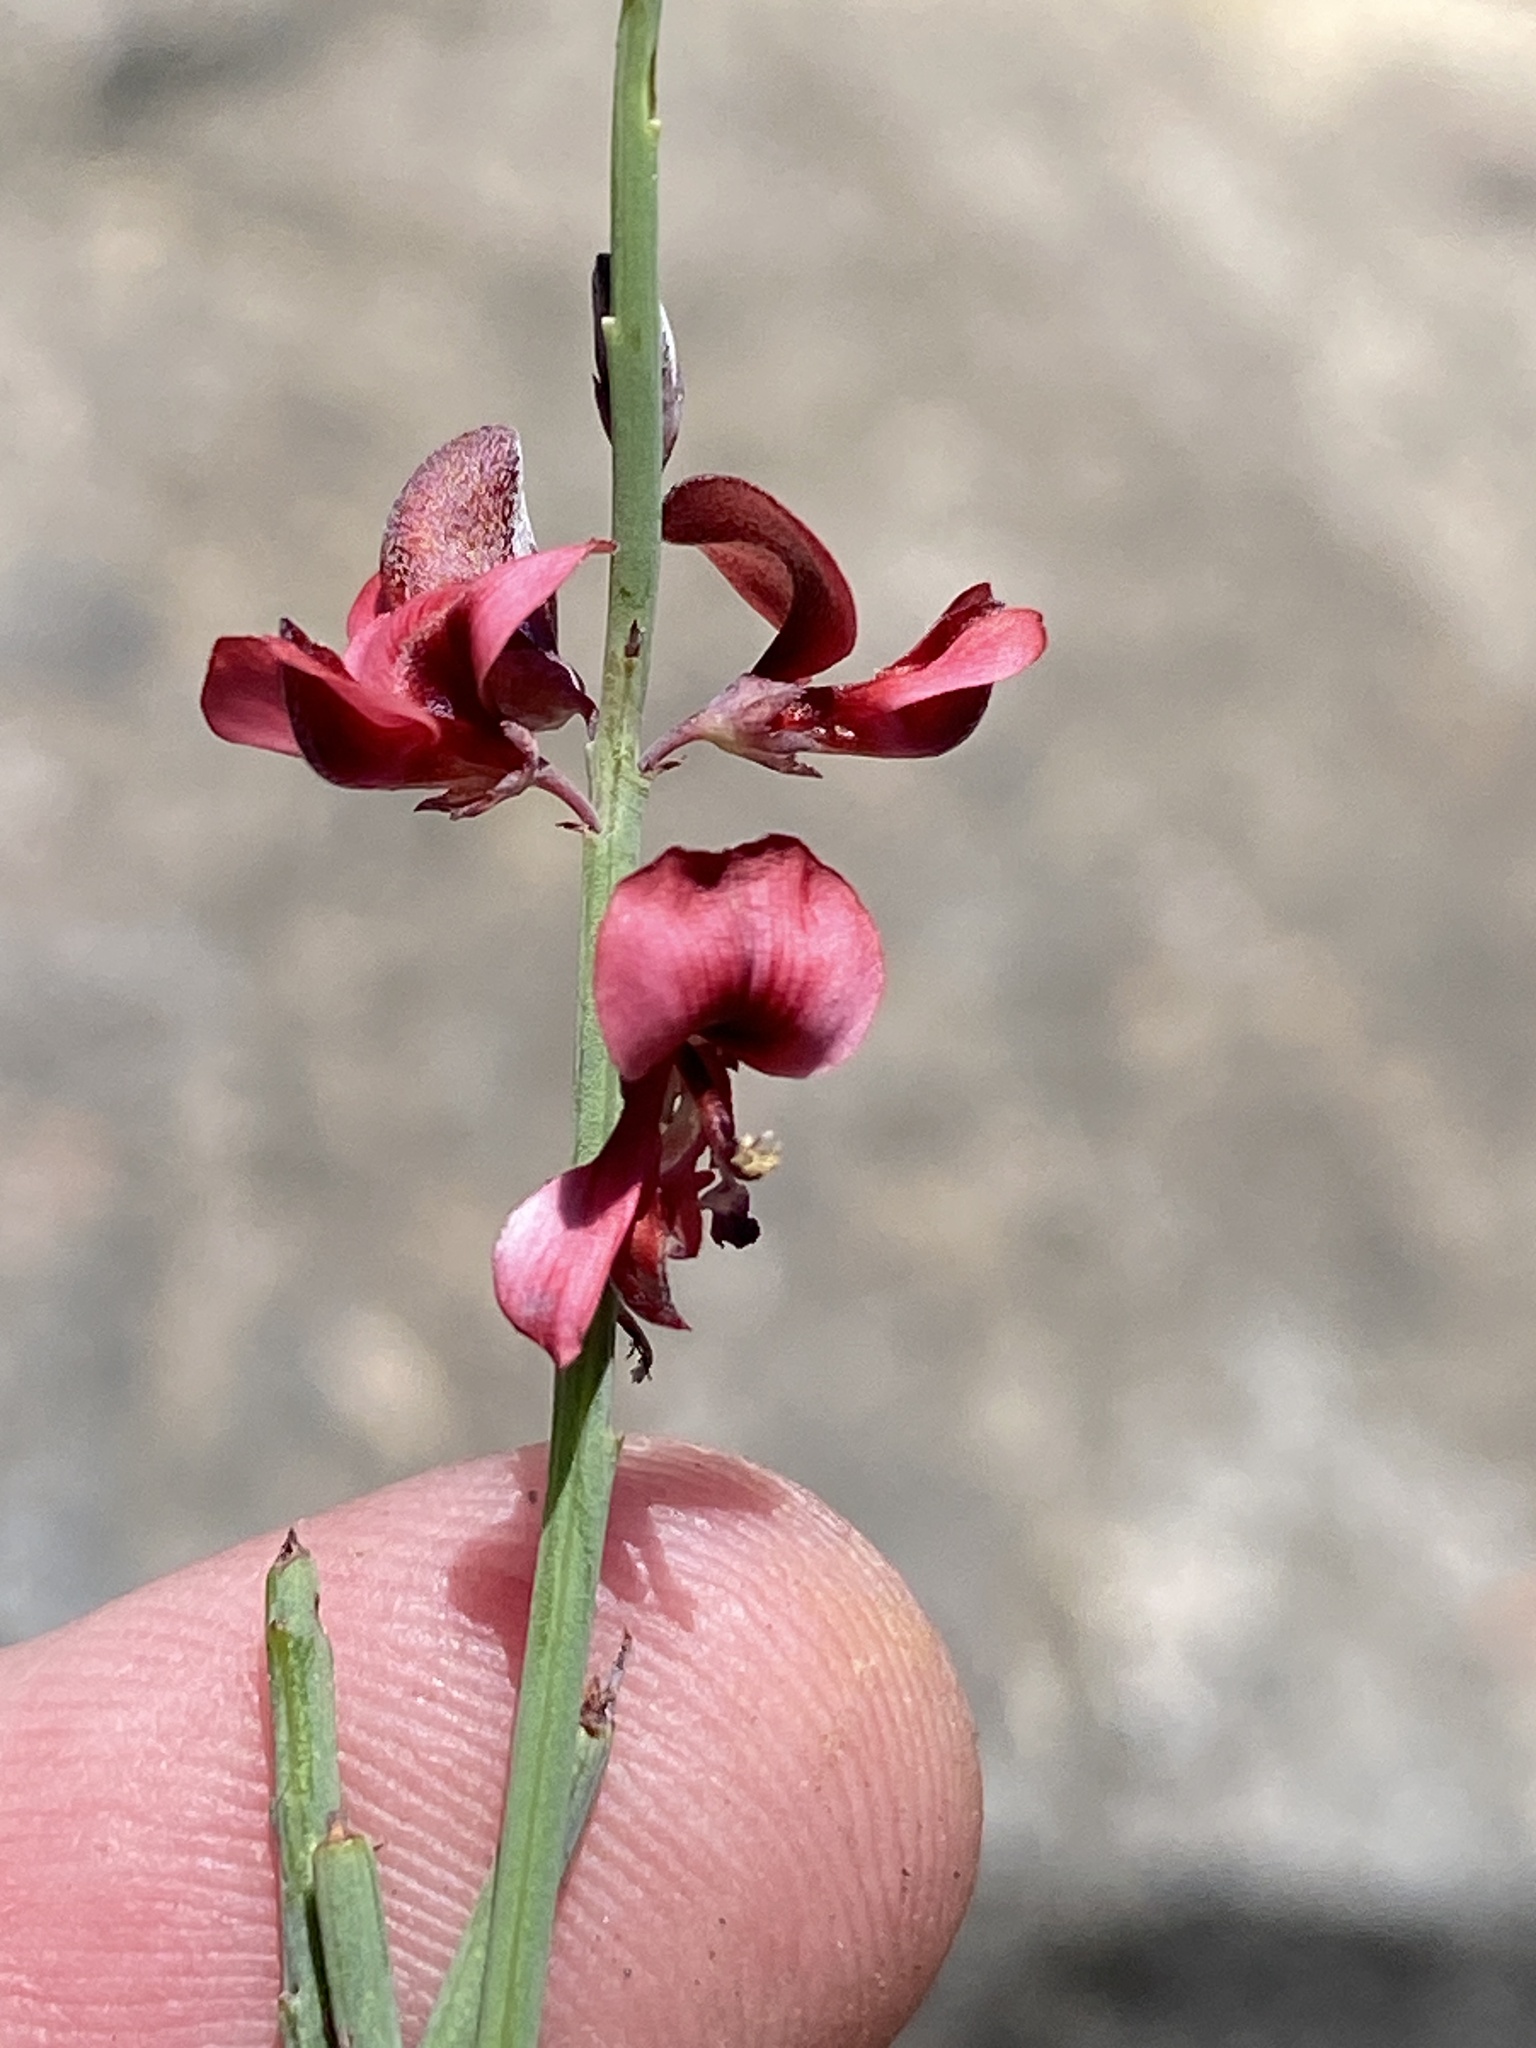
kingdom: Plantae
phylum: Tracheophyta
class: Magnoliopsida
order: Fabales
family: Fabaceae
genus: Indigofera
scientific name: Indigofera gifbergensis
